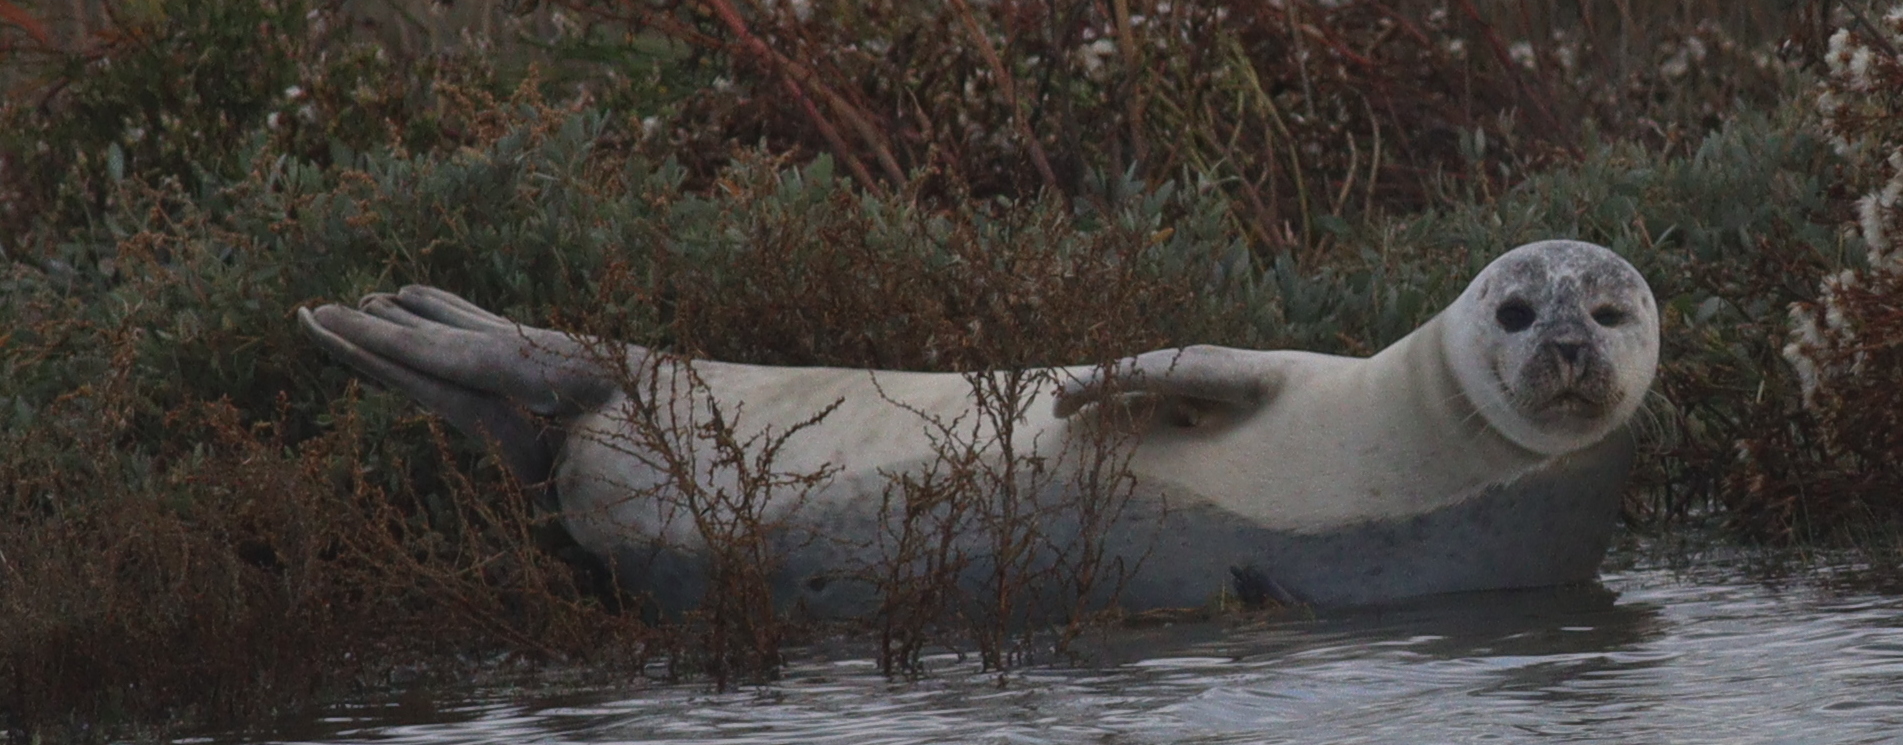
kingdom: Animalia
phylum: Chordata
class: Mammalia
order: Carnivora
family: Phocidae
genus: Phoca
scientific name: Phoca vitulina
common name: Harbor seal
